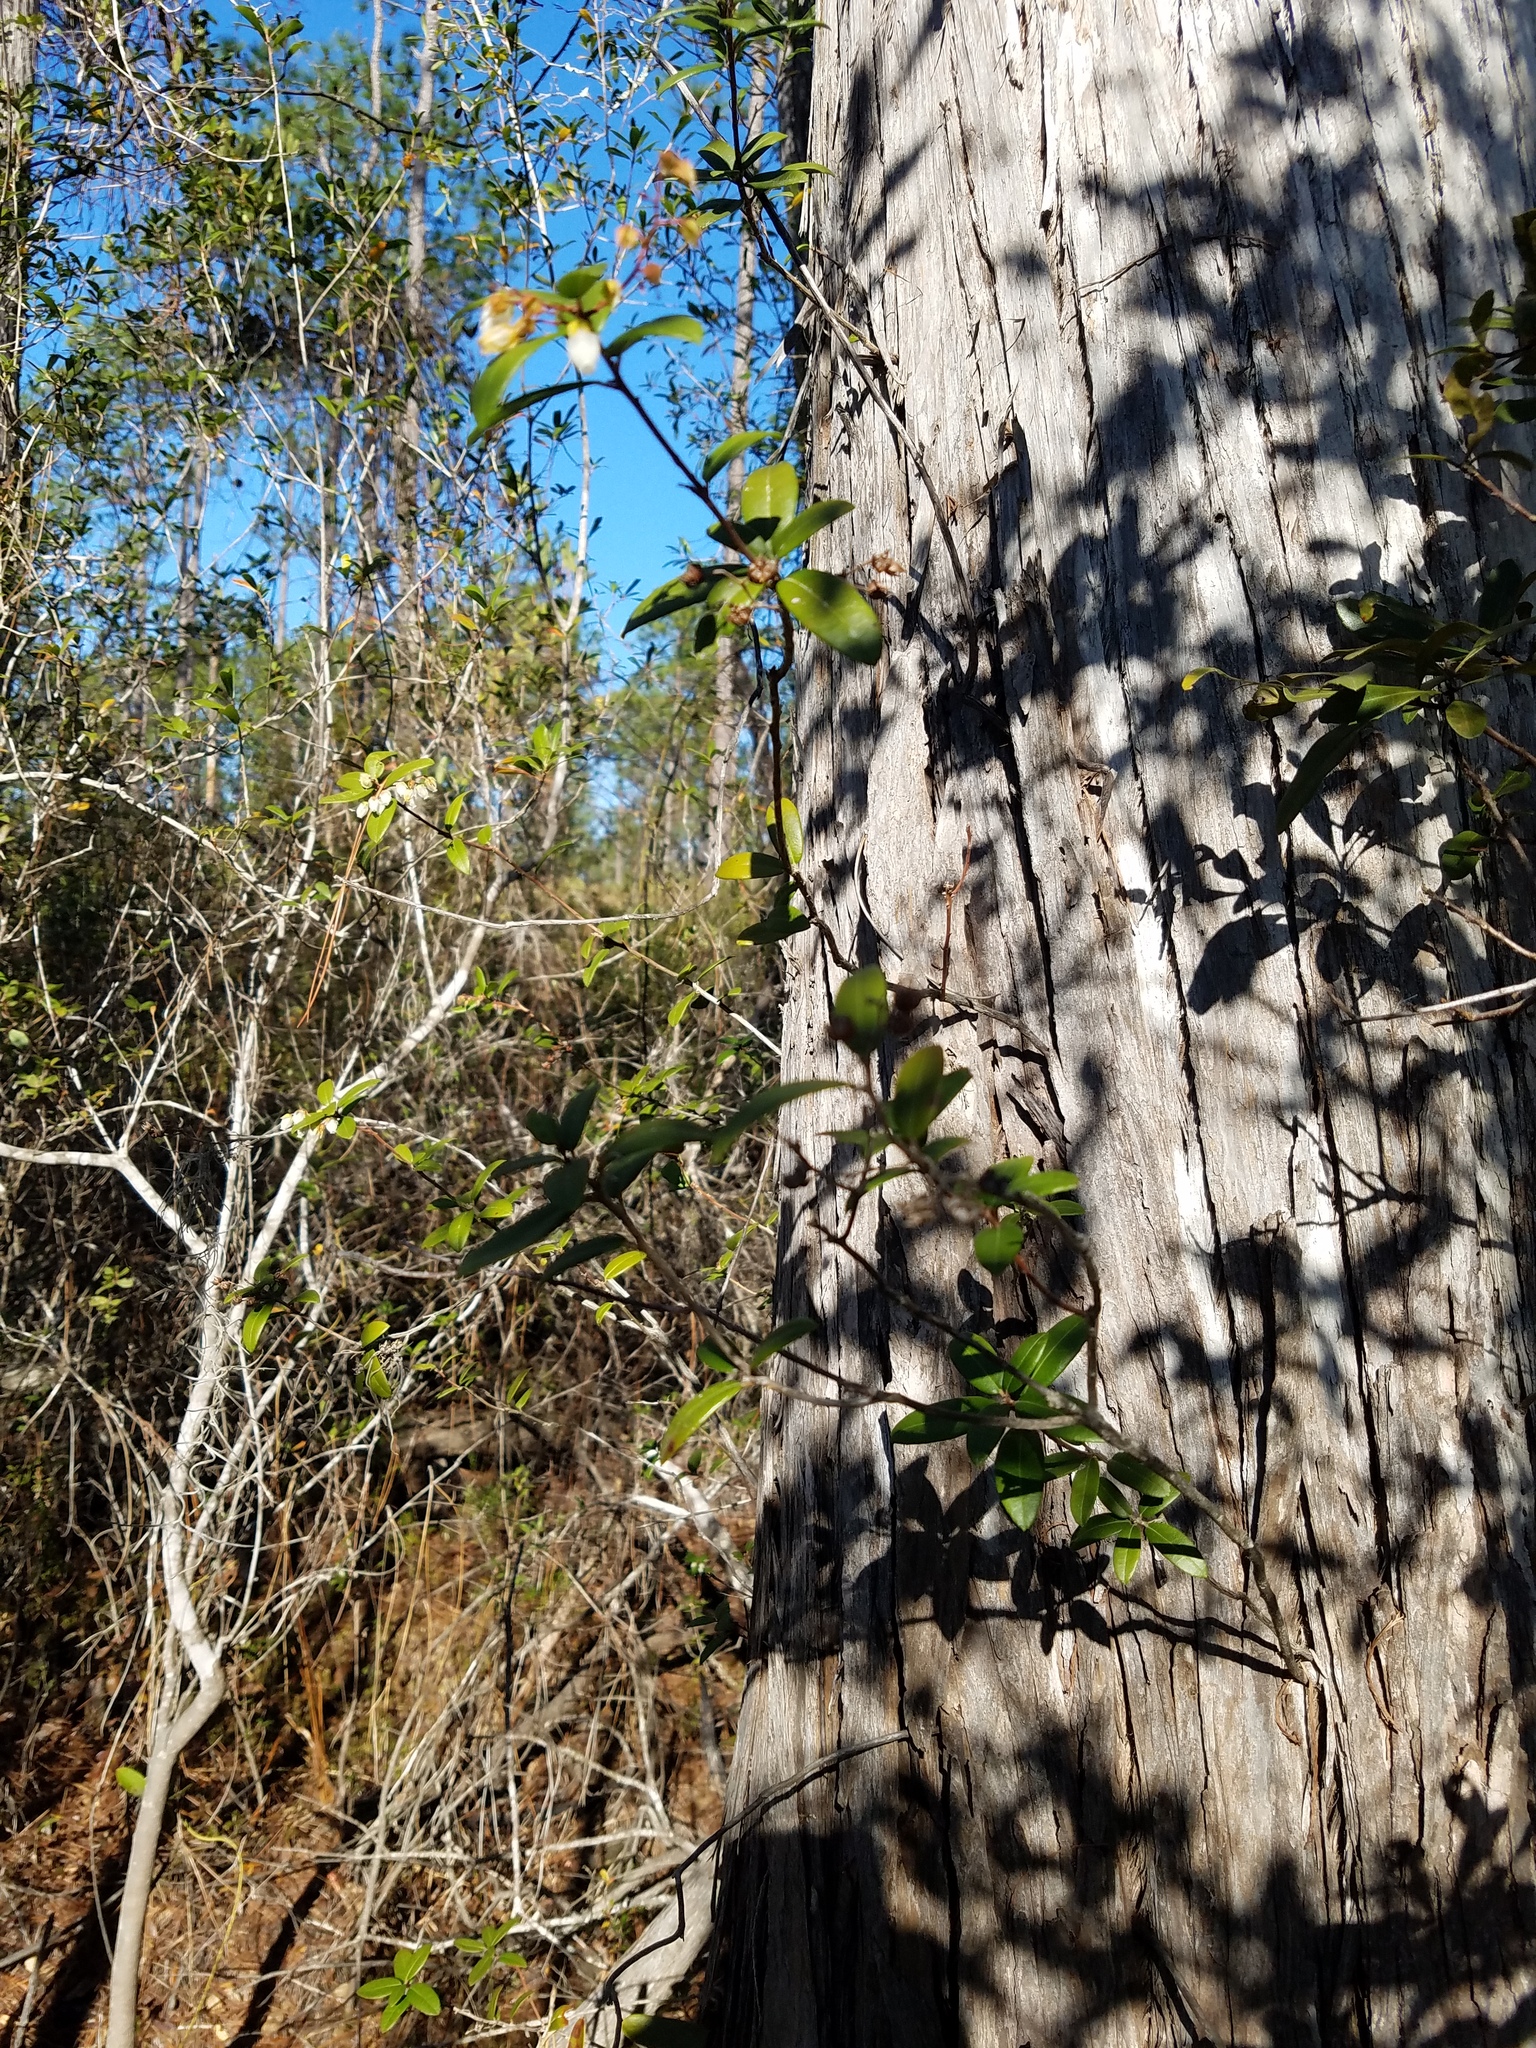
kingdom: Plantae
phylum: Tracheophyta
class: Magnoliopsida
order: Ericales
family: Ericaceae
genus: Pieris
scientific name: Pieris phillyreifolia
